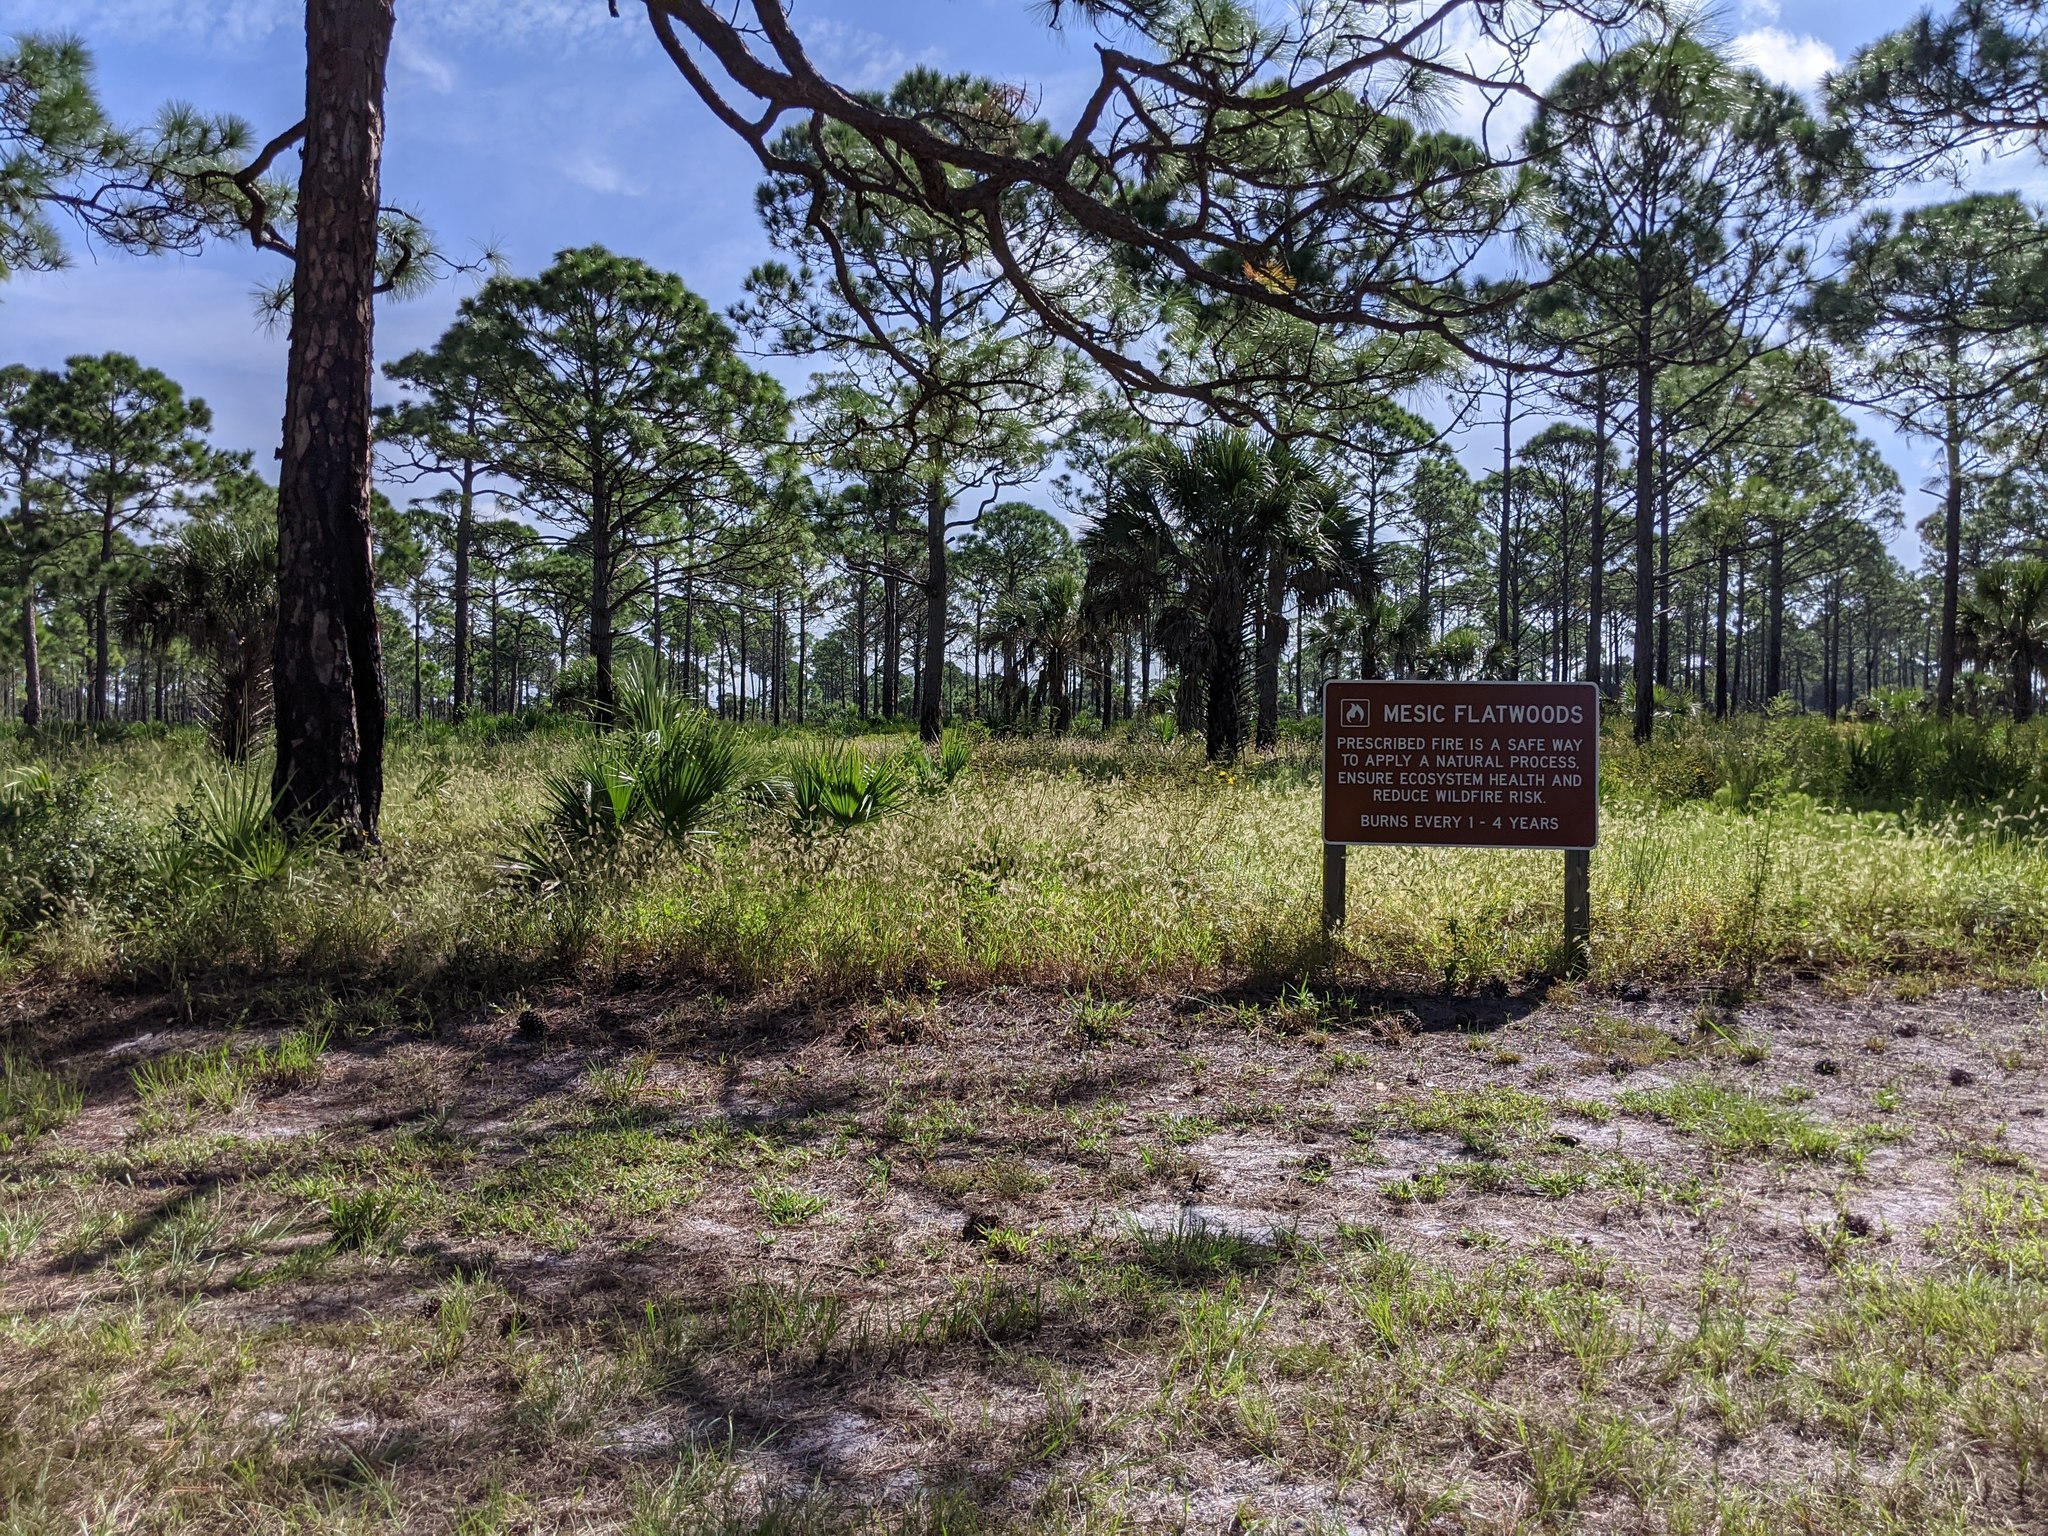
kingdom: Plantae
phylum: Tracheophyta
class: Pinopsida
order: Pinales
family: Pinaceae
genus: Pinus
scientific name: Pinus elliottii
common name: Slash pine
